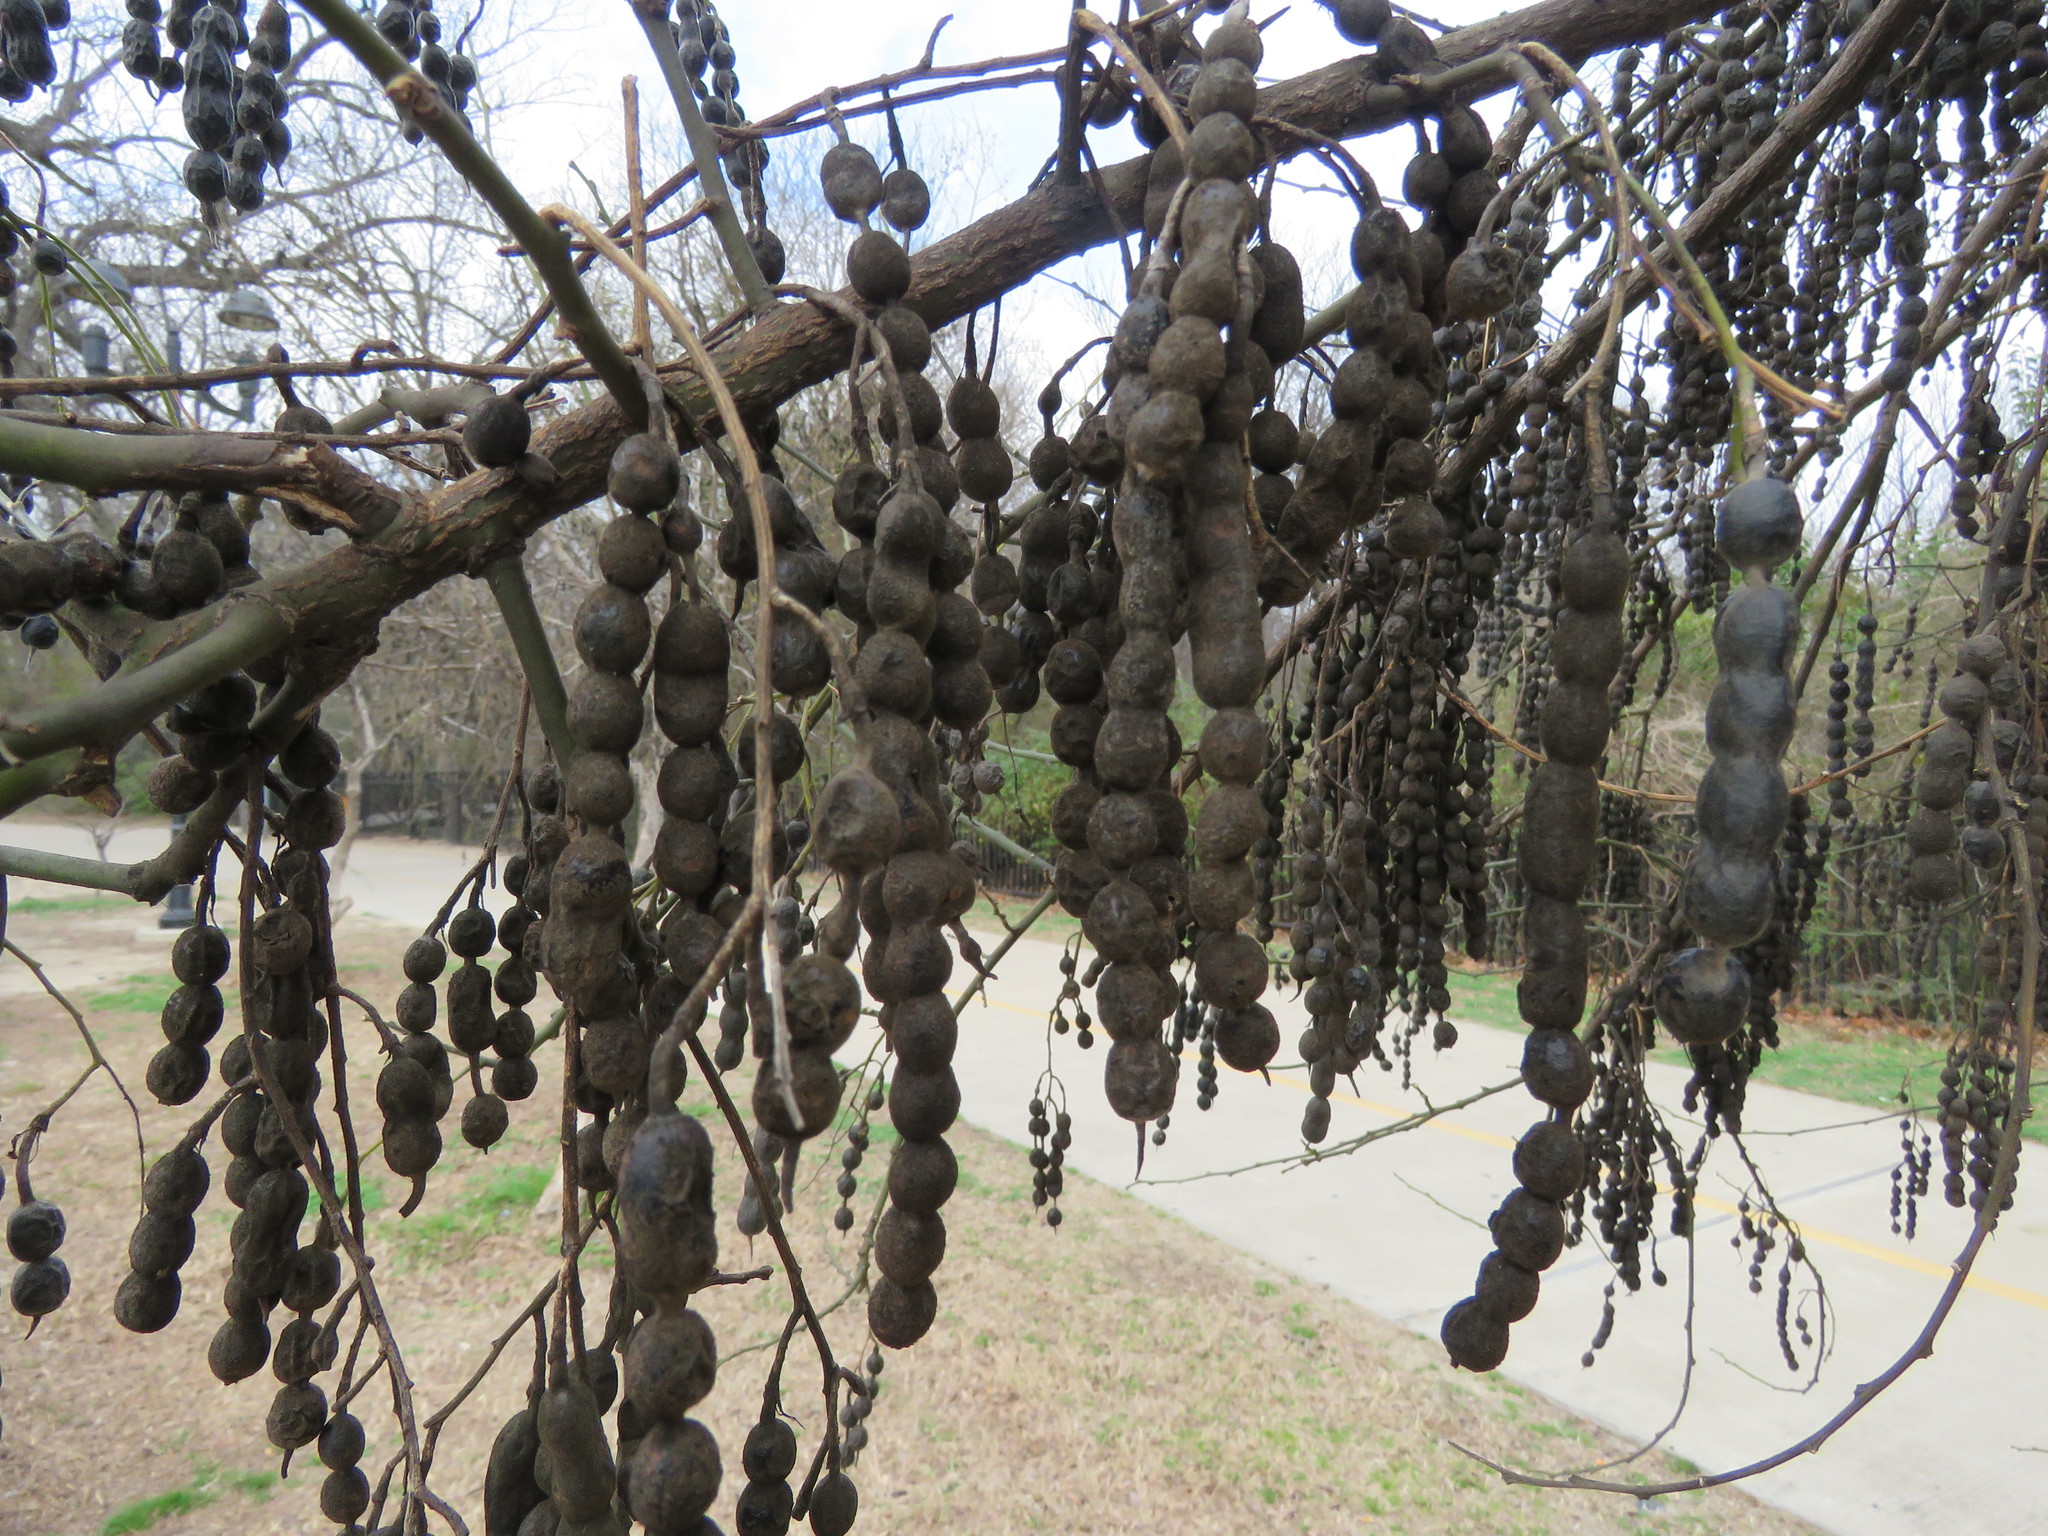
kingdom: Plantae
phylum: Tracheophyta
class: Magnoliopsida
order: Fabales
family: Fabaceae
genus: Styphnolobium
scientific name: Styphnolobium affine
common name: Texas sophora
